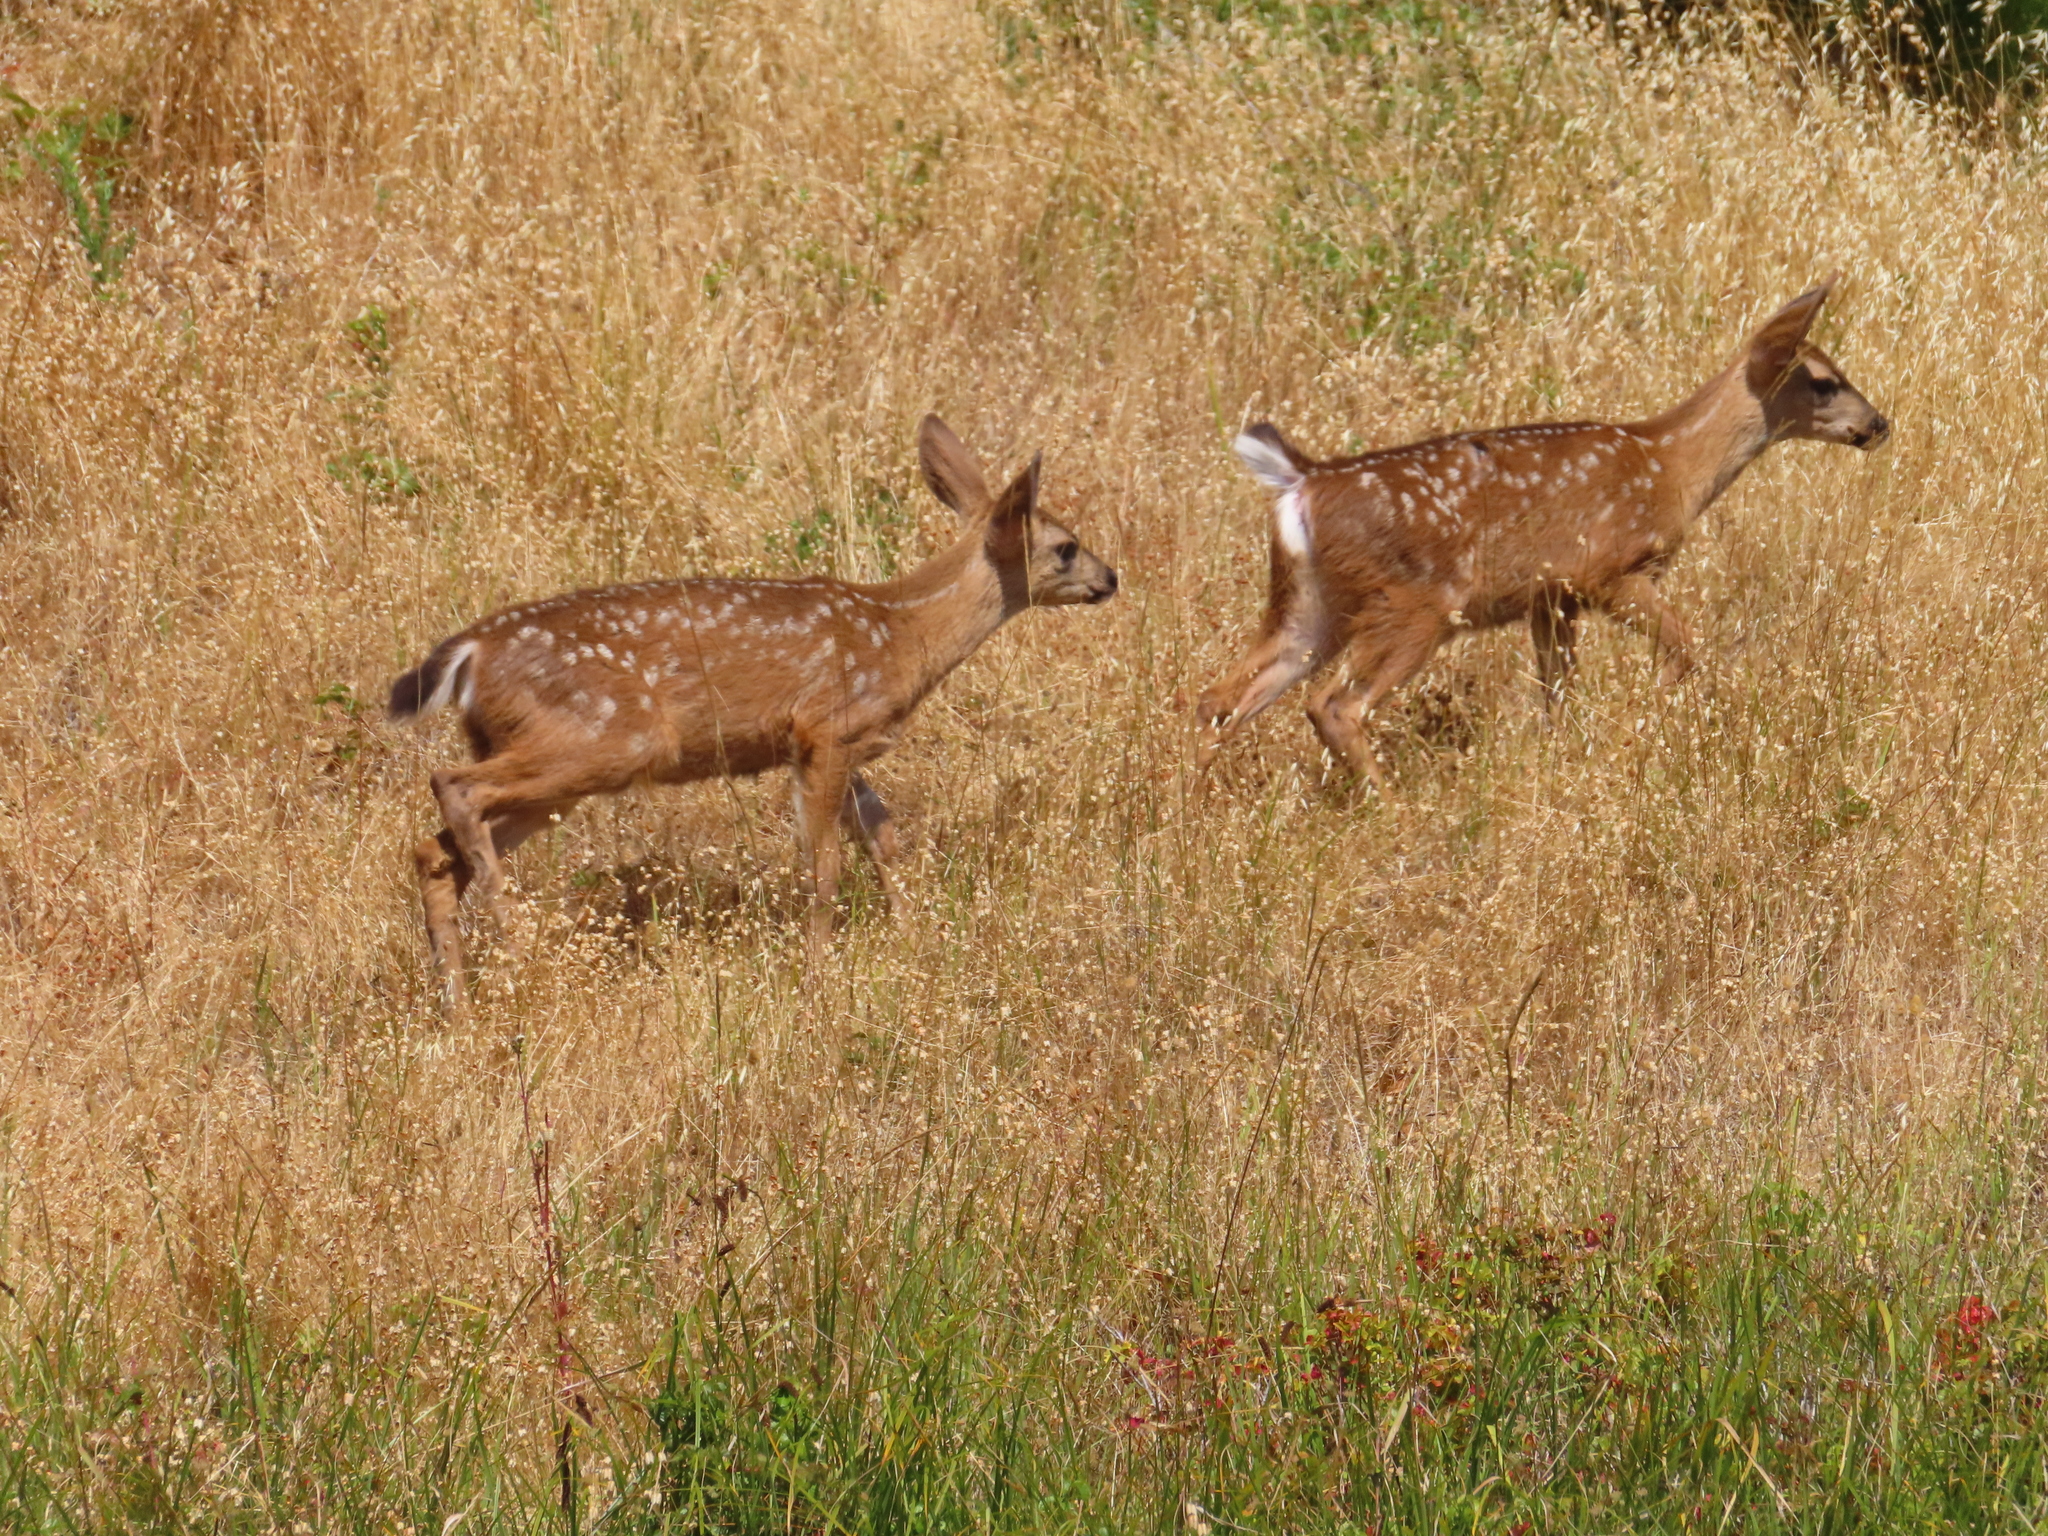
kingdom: Animalia
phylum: Chordata
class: Mammalia
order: Artiodactyla
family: Cervidae
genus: Odocoileus
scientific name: Odocoileus hemionus
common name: Mule deer
